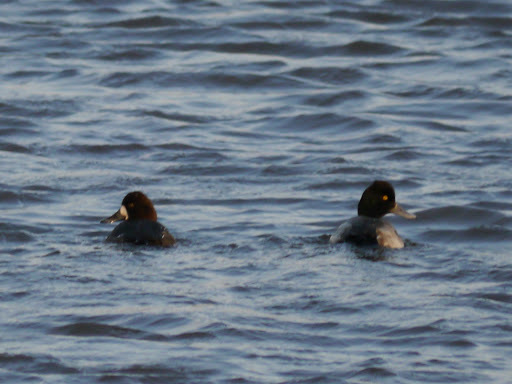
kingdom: Animalia
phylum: Chordata
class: Aves
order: Anseriformes
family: Anatidae
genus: Aythya
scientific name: Aythya affinis
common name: Lesser scaup
